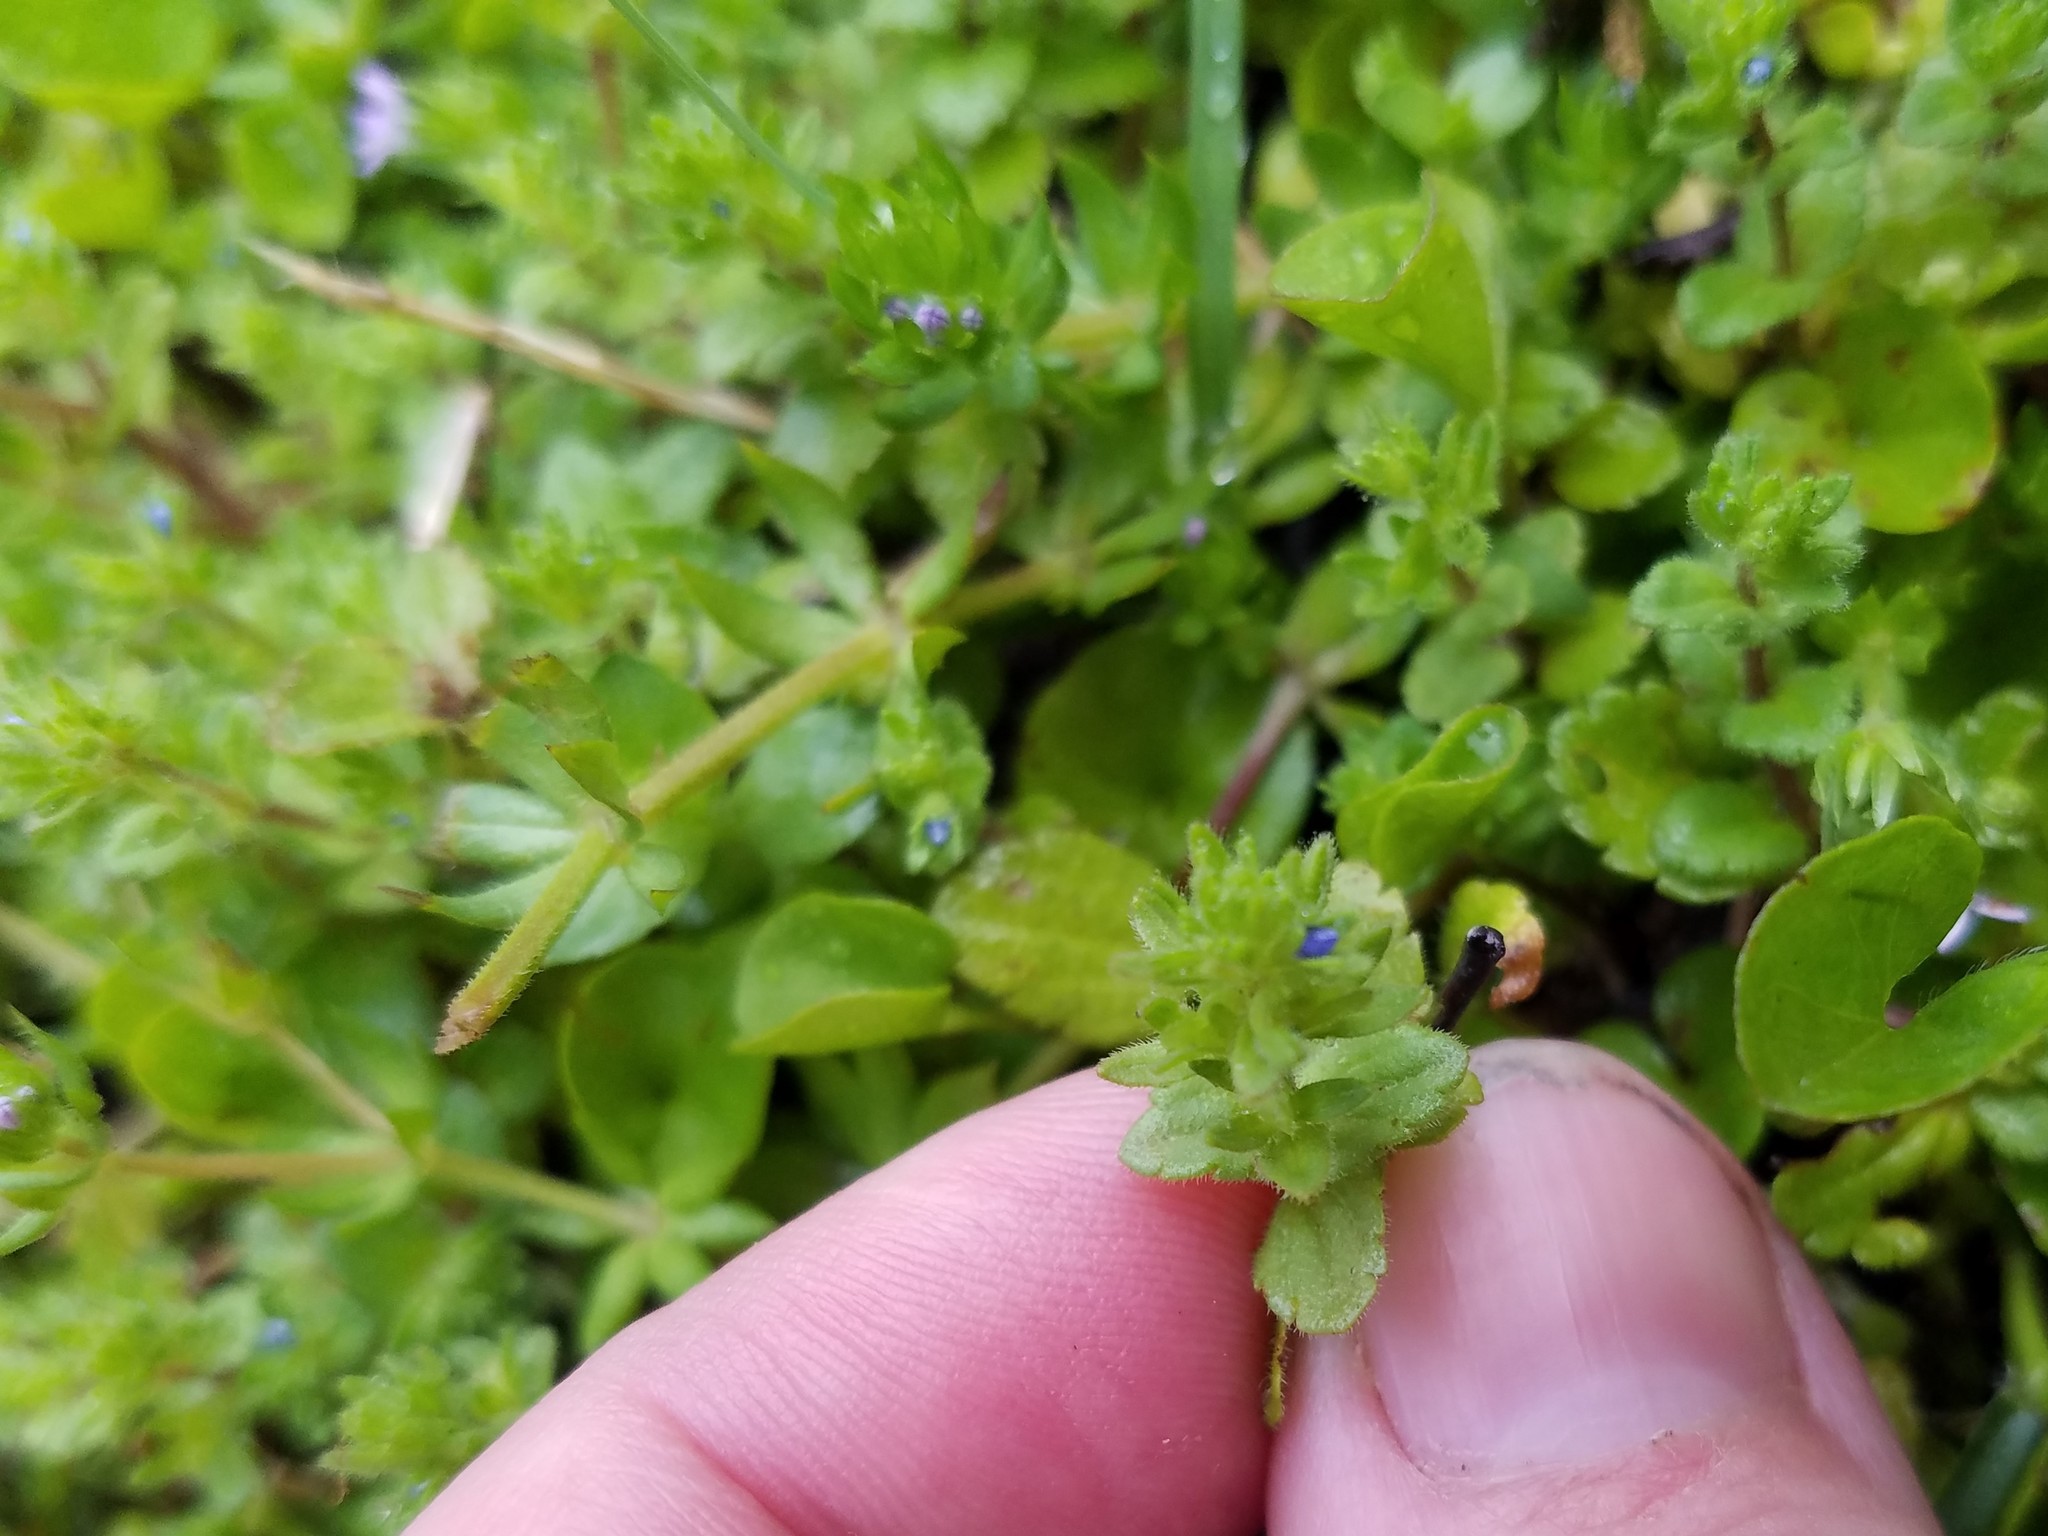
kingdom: Plantae
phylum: Tracheophyta
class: Magnoliopsida
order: Lamiales
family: Plantaginaceae
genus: Veronica
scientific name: Veronica arvensis
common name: Corn speedwell
